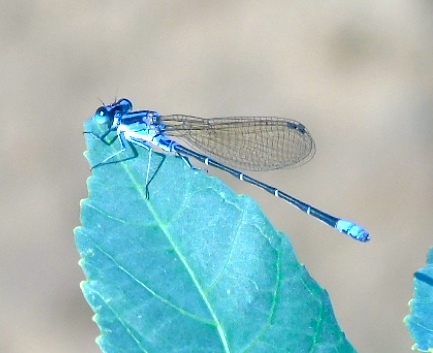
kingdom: Animalia
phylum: Arthropoda
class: Insecta
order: Odonata
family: Coenagrionidae
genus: Argia
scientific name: Argia sedula
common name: Blue-ringed dancer
